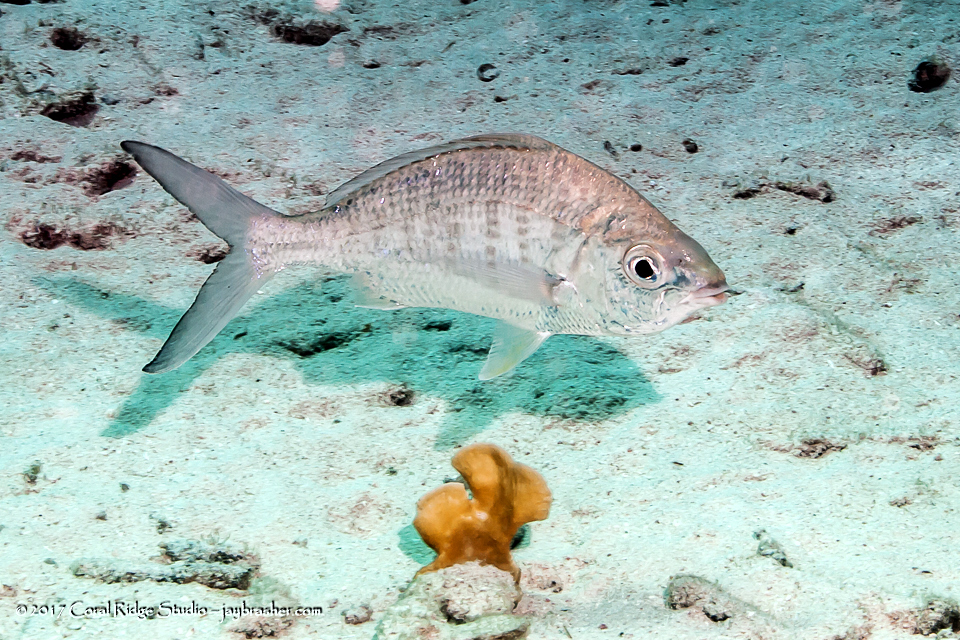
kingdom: Animalia
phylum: Chordata
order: Perciformes
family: Gerreidae
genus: Gerres
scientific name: Gerres cinereus
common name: Hedow
